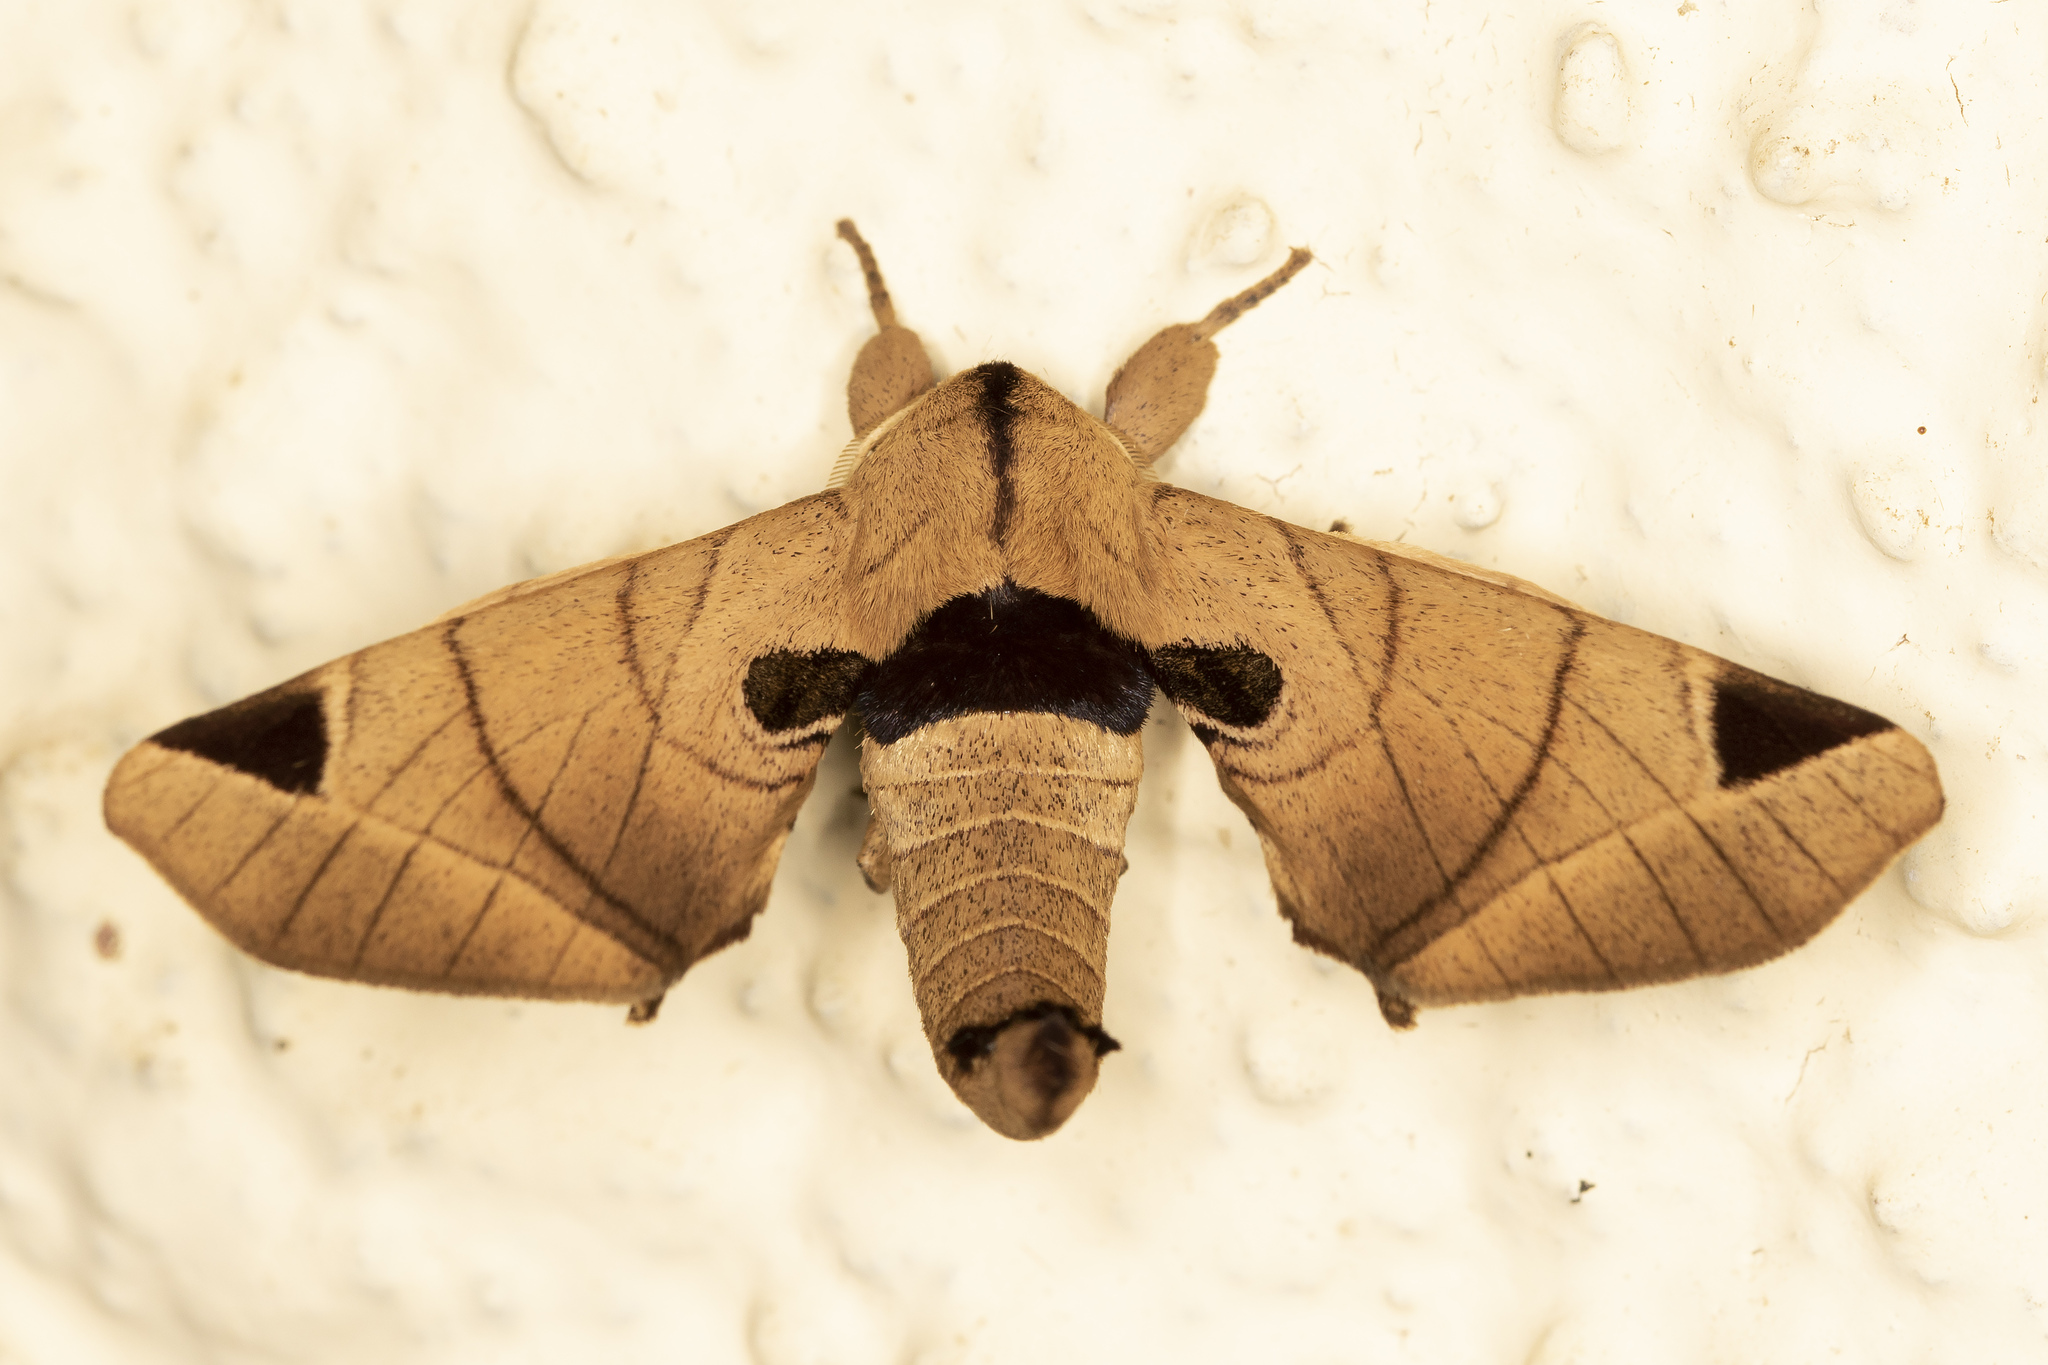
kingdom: Animalia
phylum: Arthropoda
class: Insecta
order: Lepidoptera
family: Apatelodidae
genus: Hygrochroa
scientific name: Hygrochroa Apatelodes pandarioides
